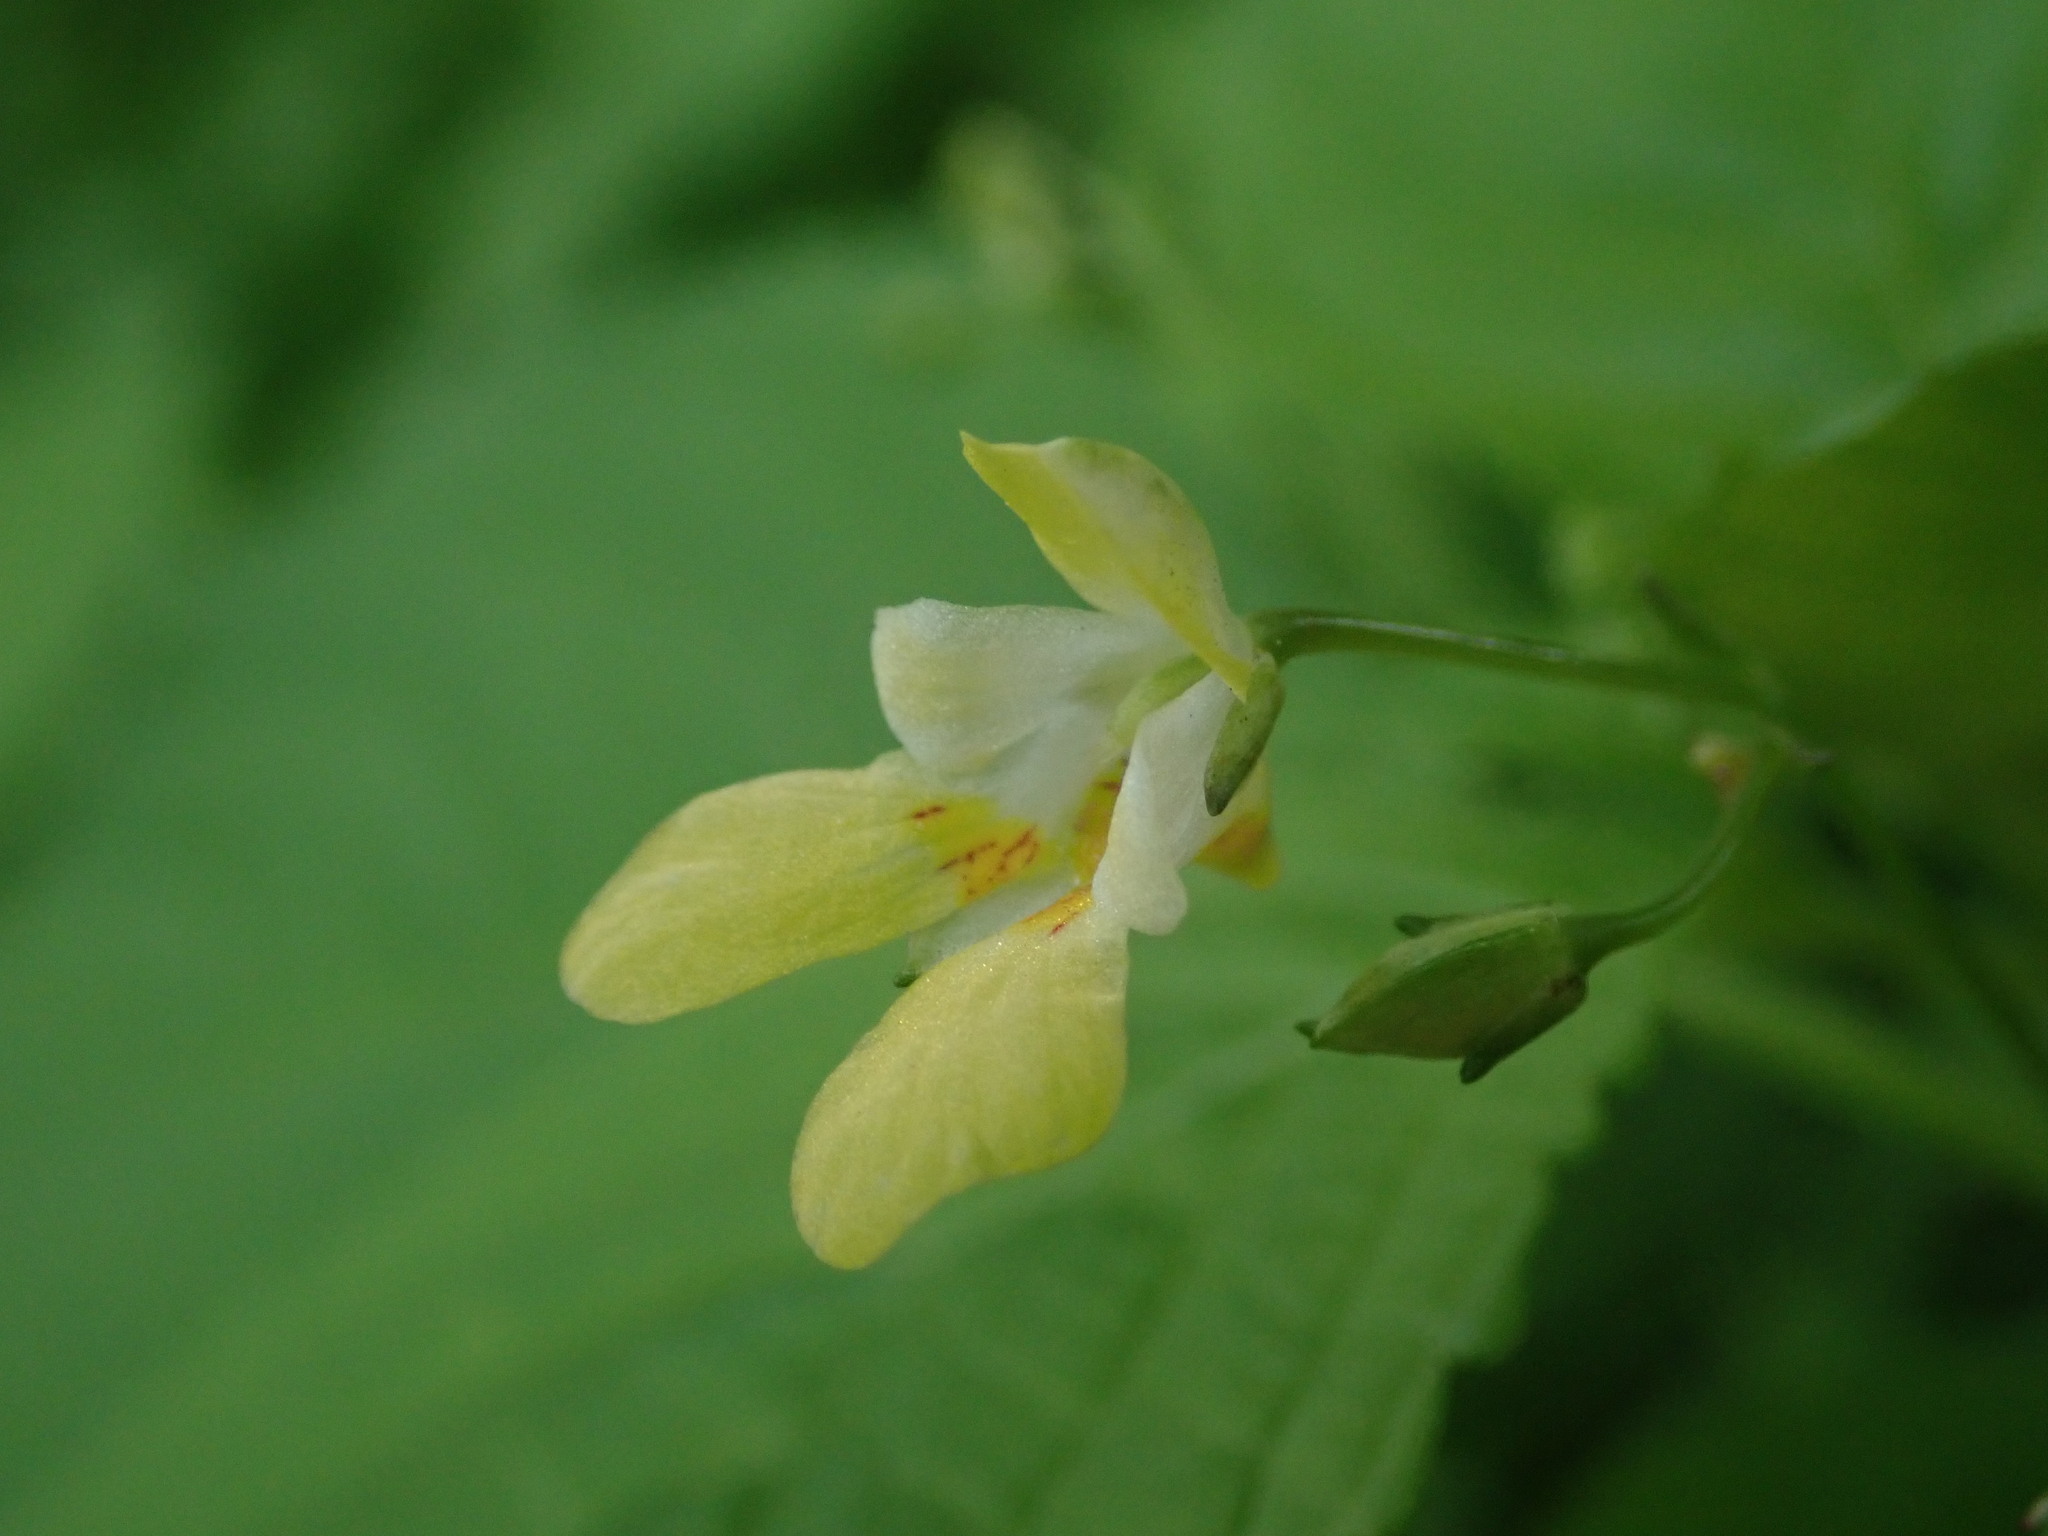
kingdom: Plantae
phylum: Tracheophyta
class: Magnoliopsida
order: Ericales
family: Balsaminaceae
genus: Impatiens
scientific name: Impatiens parviflora
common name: Small balsam
